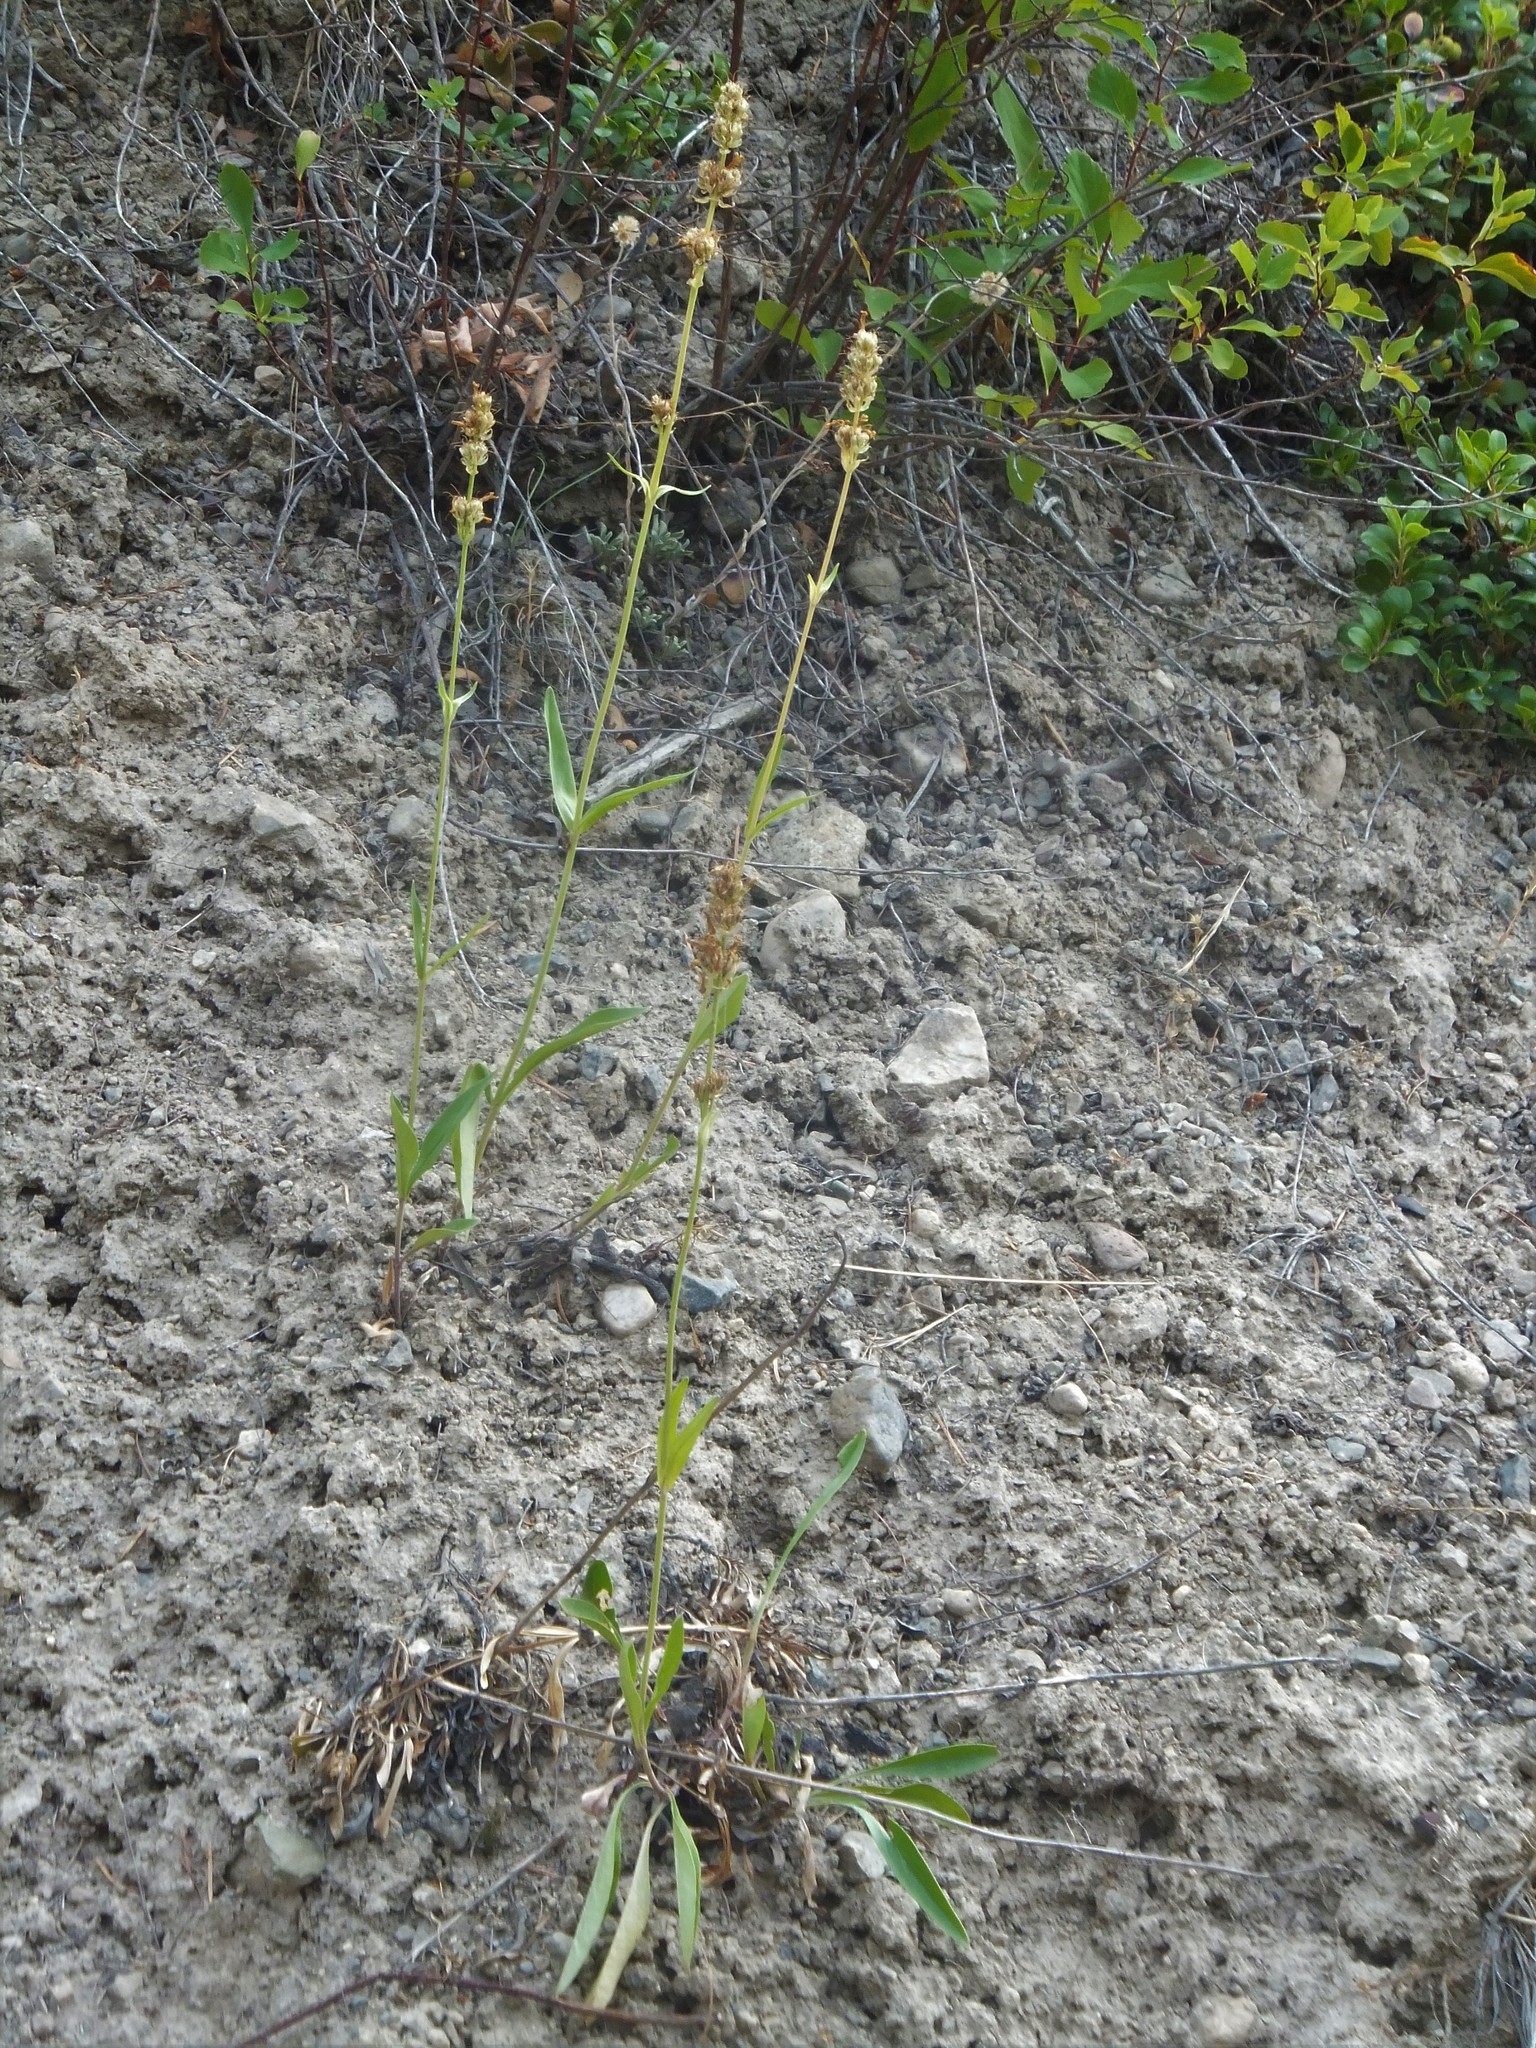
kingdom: Plantae
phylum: Tracheophyta
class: Magnoliopsida
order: Lamiales
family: Plantaginaceae
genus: Penstemon
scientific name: Penstemon confertus
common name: Lesser yellow beardtongue
